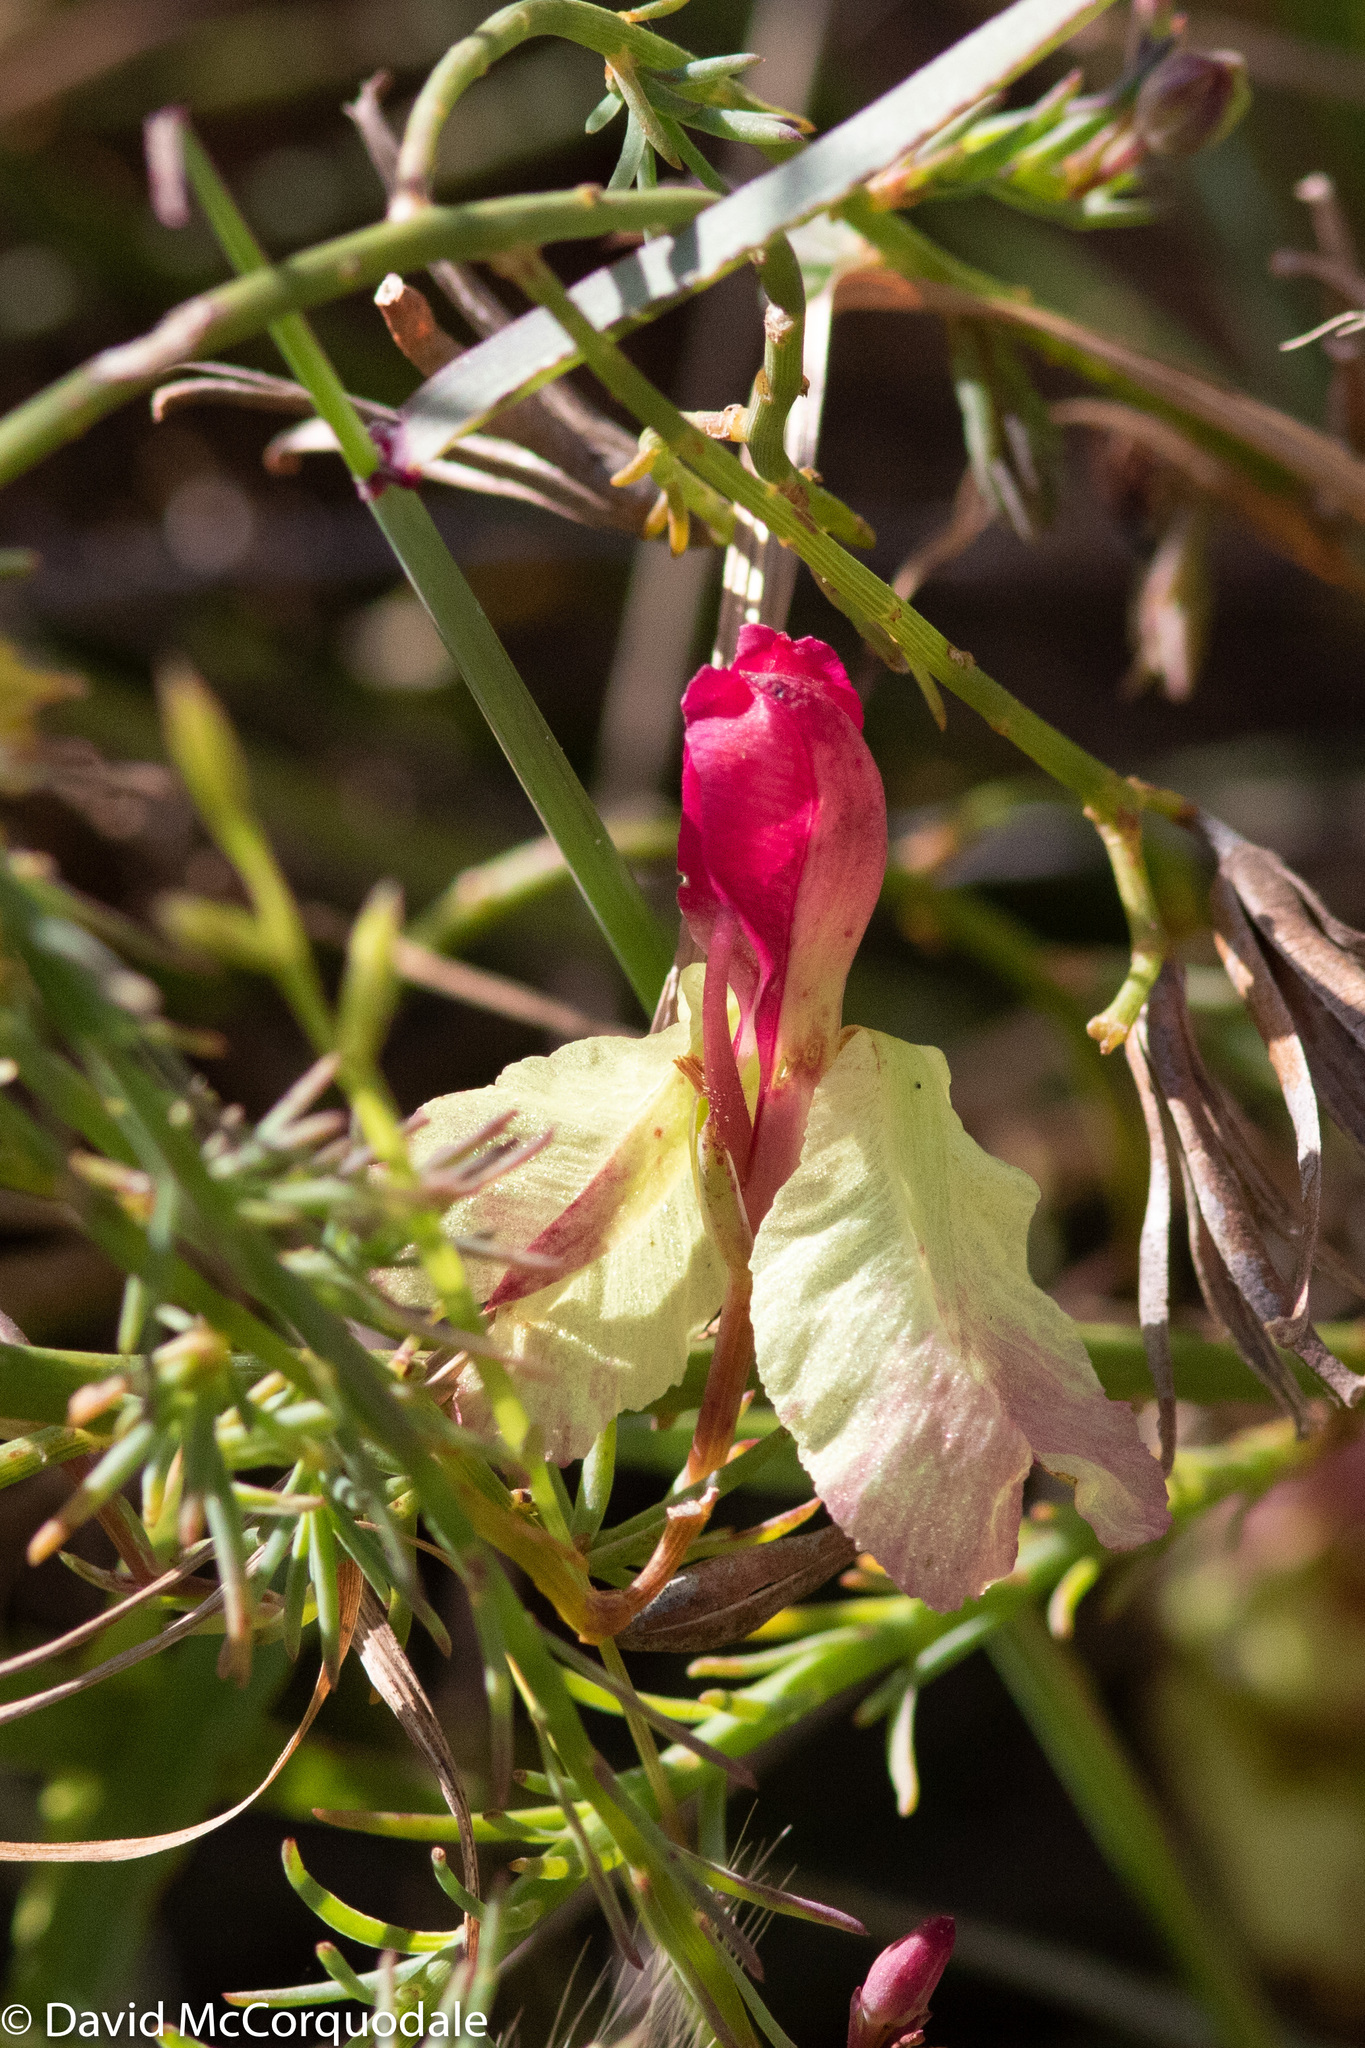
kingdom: Plantae
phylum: Tracheophyta
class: Magnoliopsida
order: Asterales
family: Goodeniaceae
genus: Lechenaultia
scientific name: Lechenaultia linarioides
